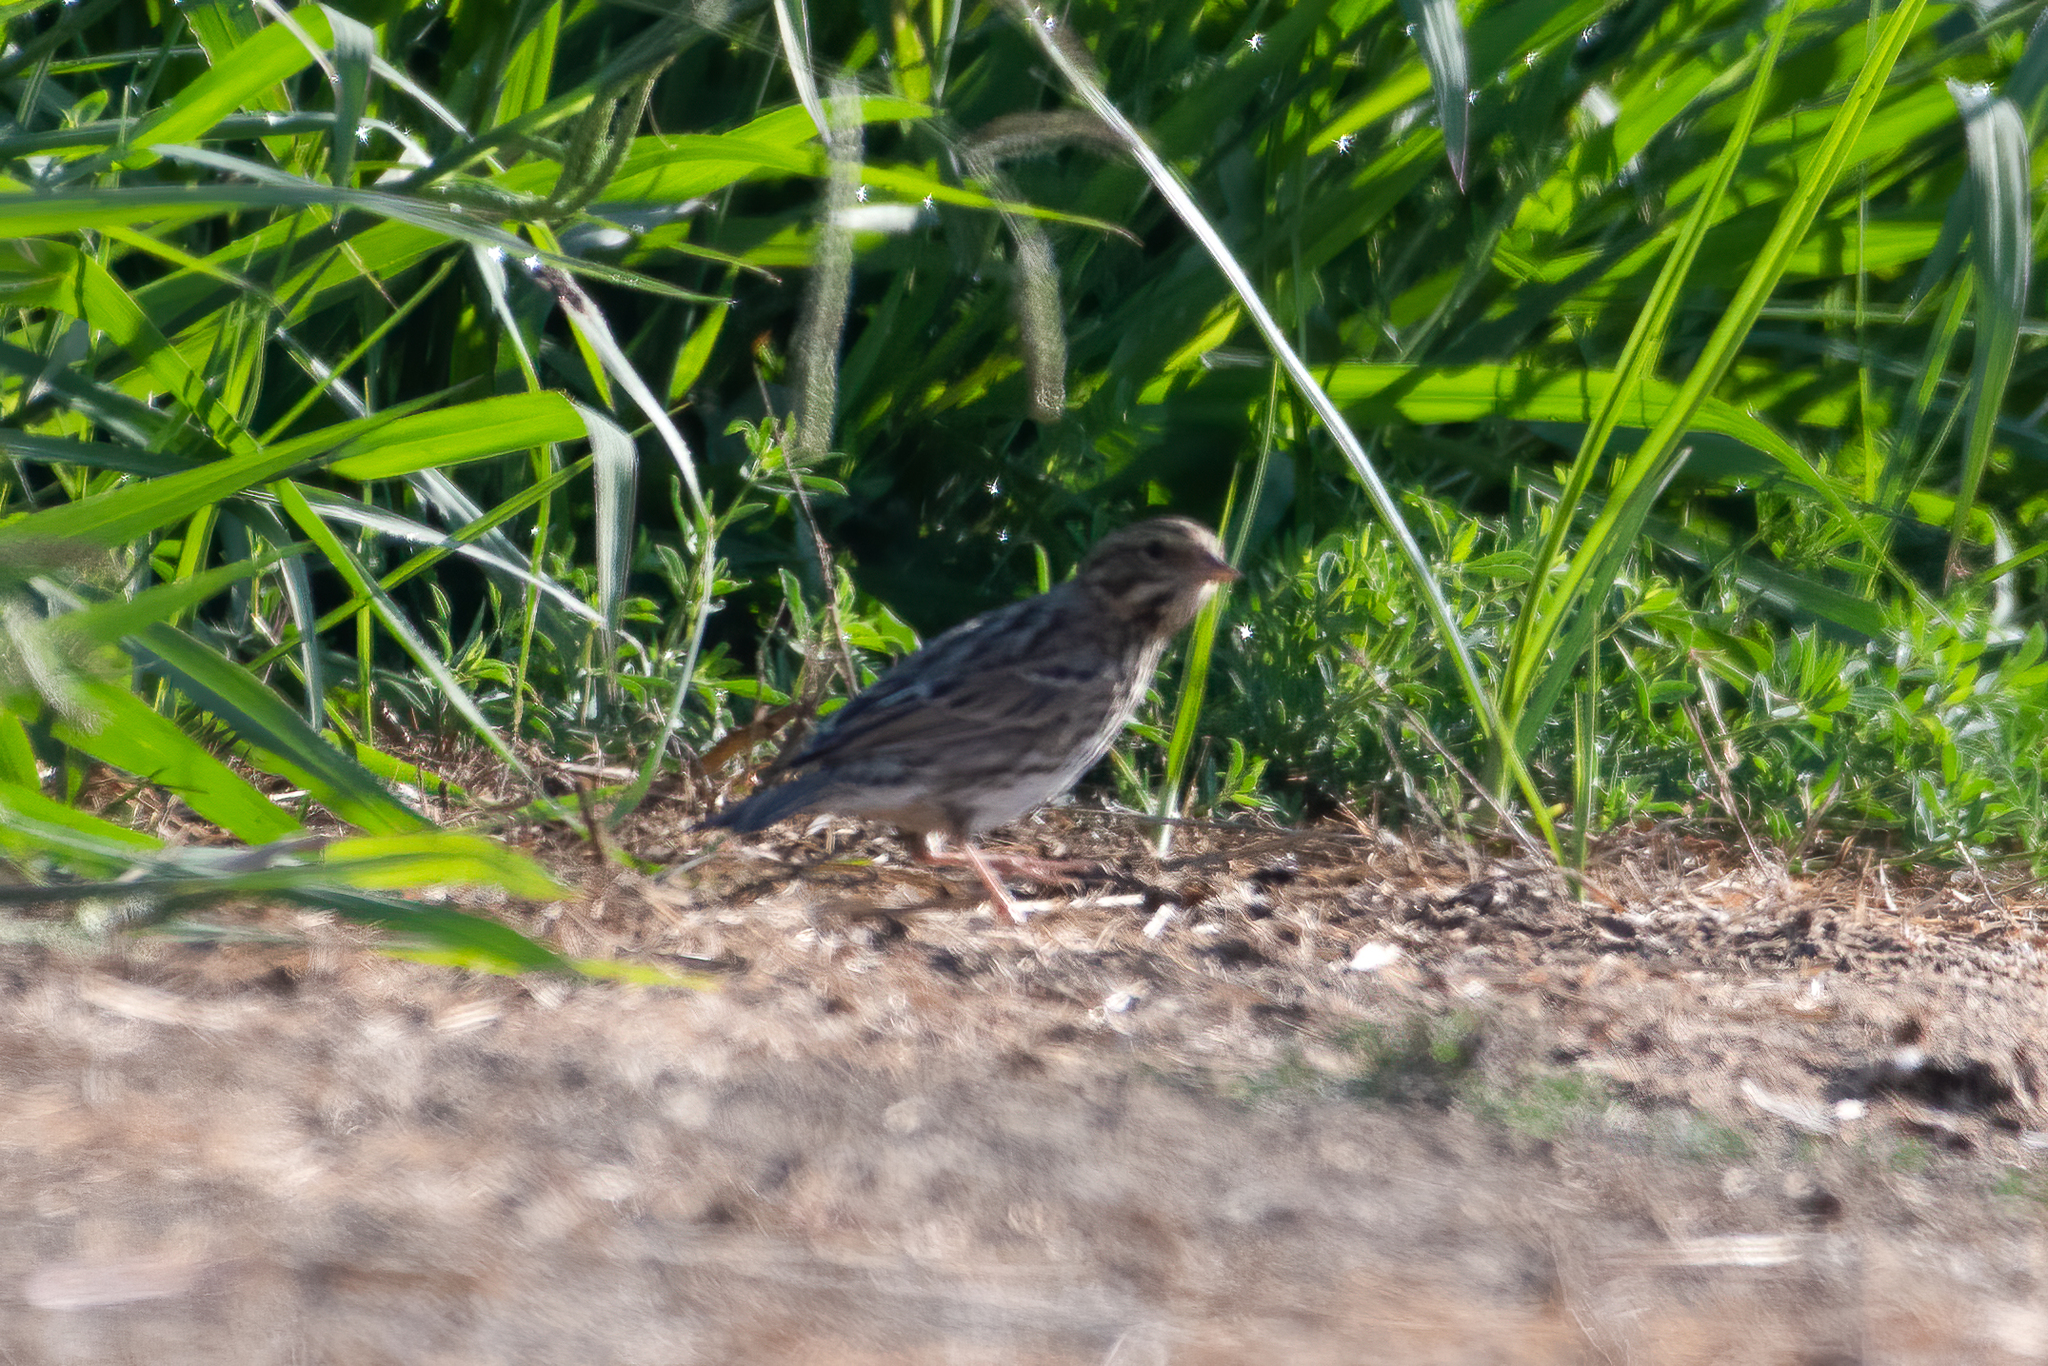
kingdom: Animalia
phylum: Chordata
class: Aves
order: Passeriformes
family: Passerellidae
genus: Passerculus
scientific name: Passerculus sandwichensis
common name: Savannah sparrow
